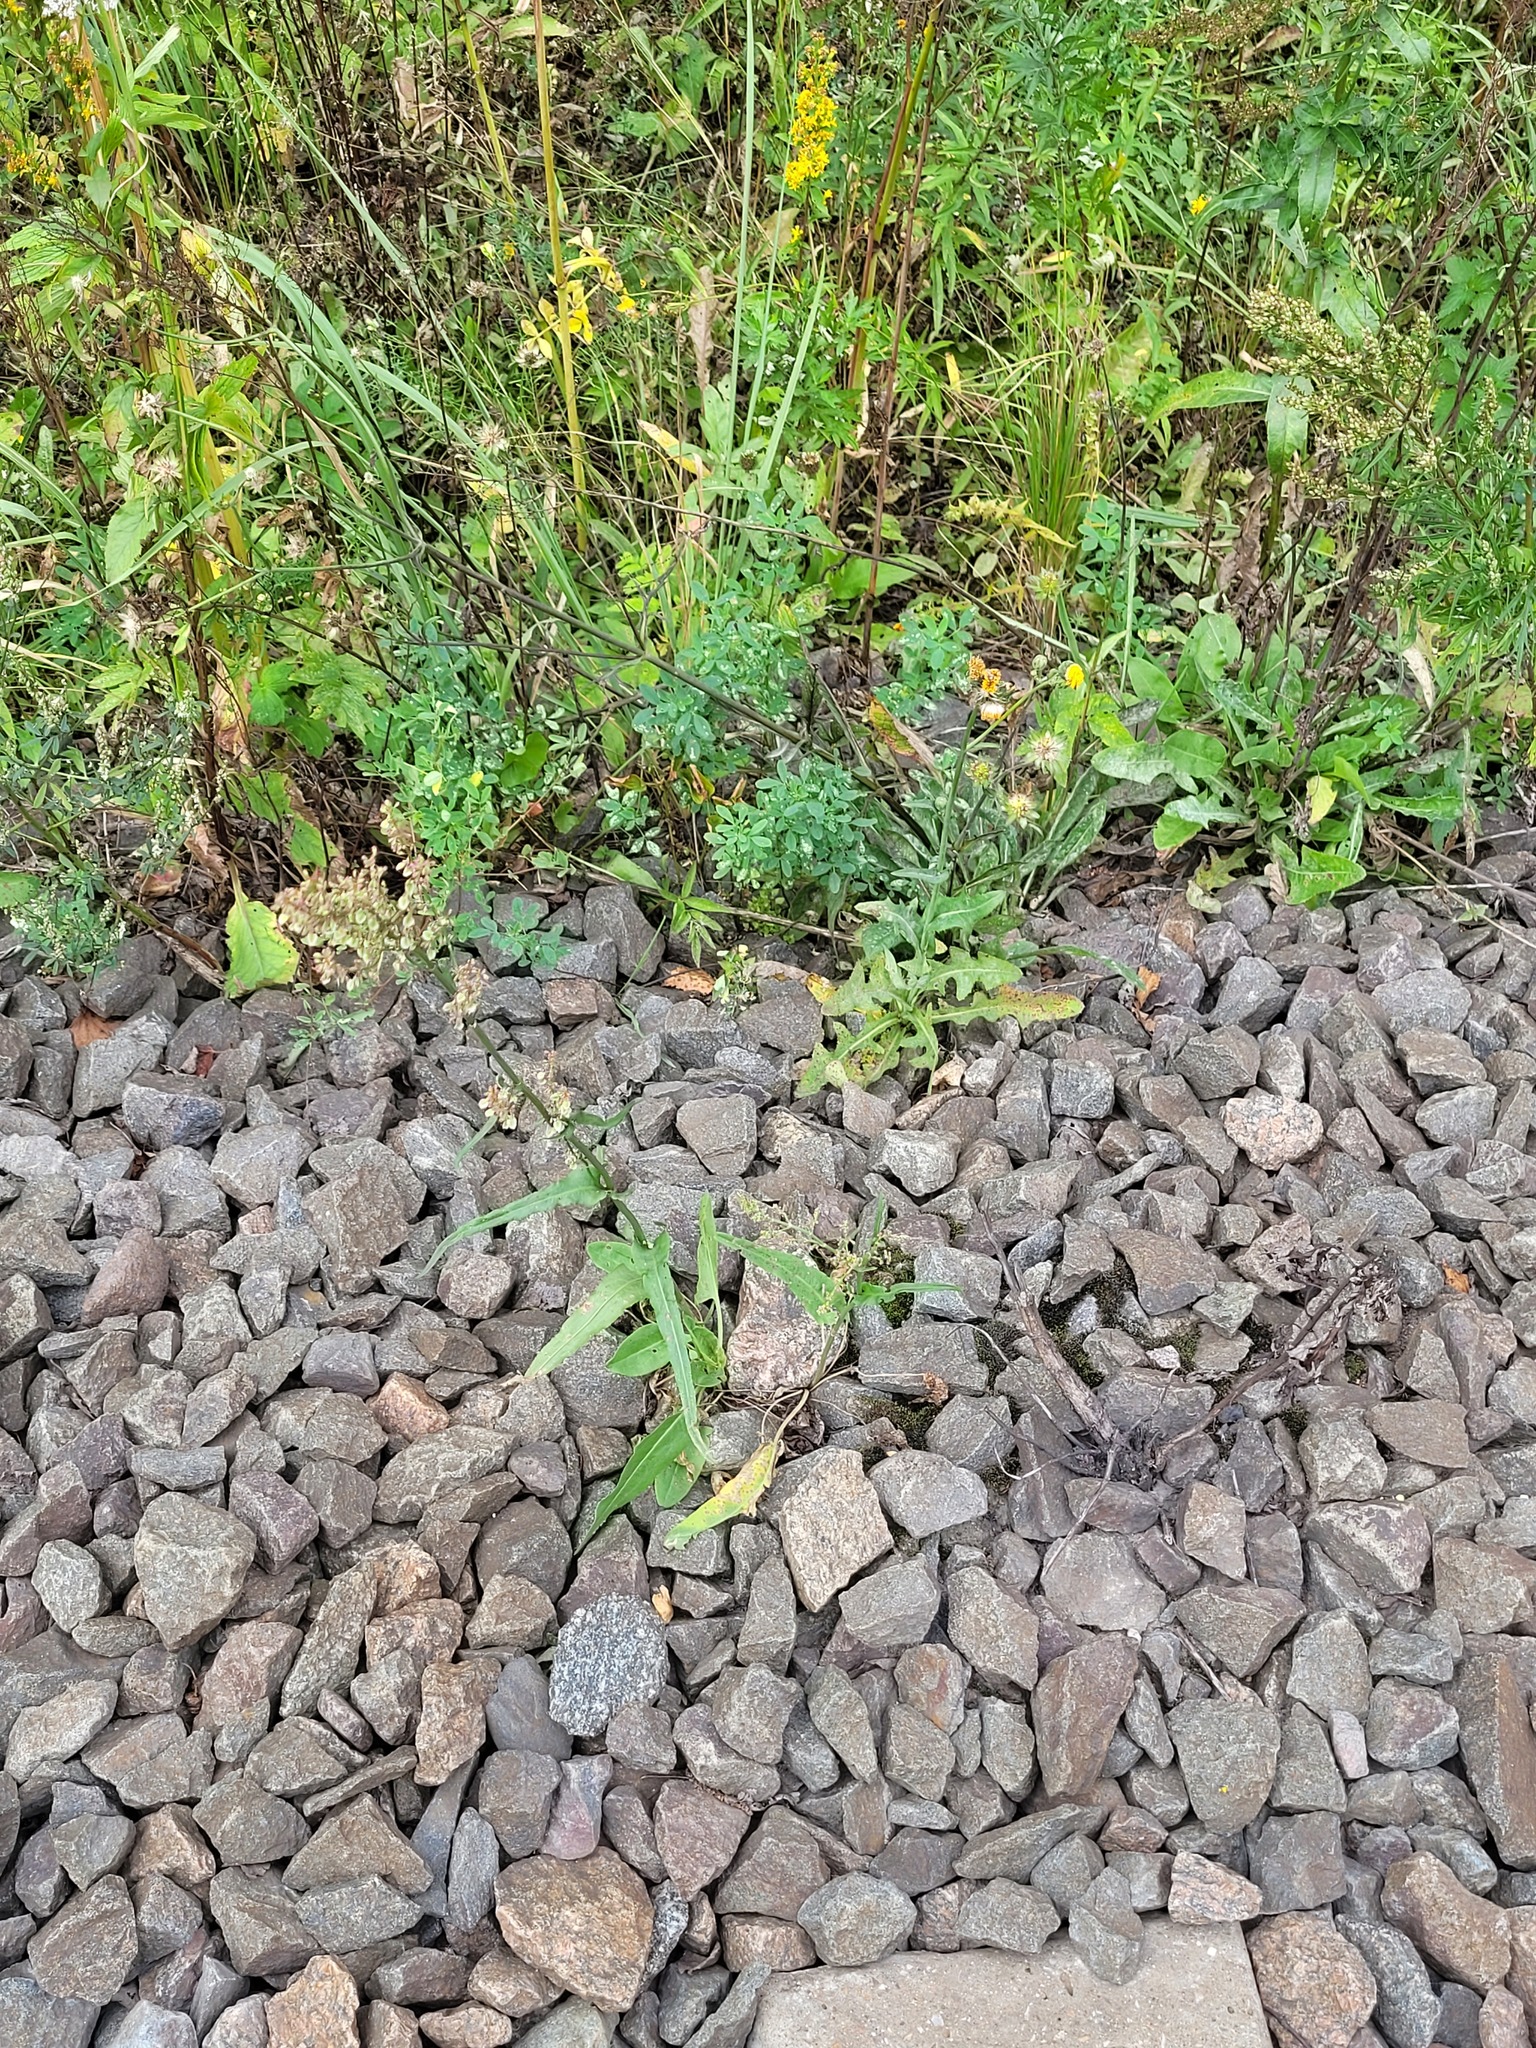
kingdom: Plantae
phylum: Tracheophyta
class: Magnoliopsida
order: Caryophyllales
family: Polygonaceae
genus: Rumex
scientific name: Rumex thyrsiflorus
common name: Garden sorrel
